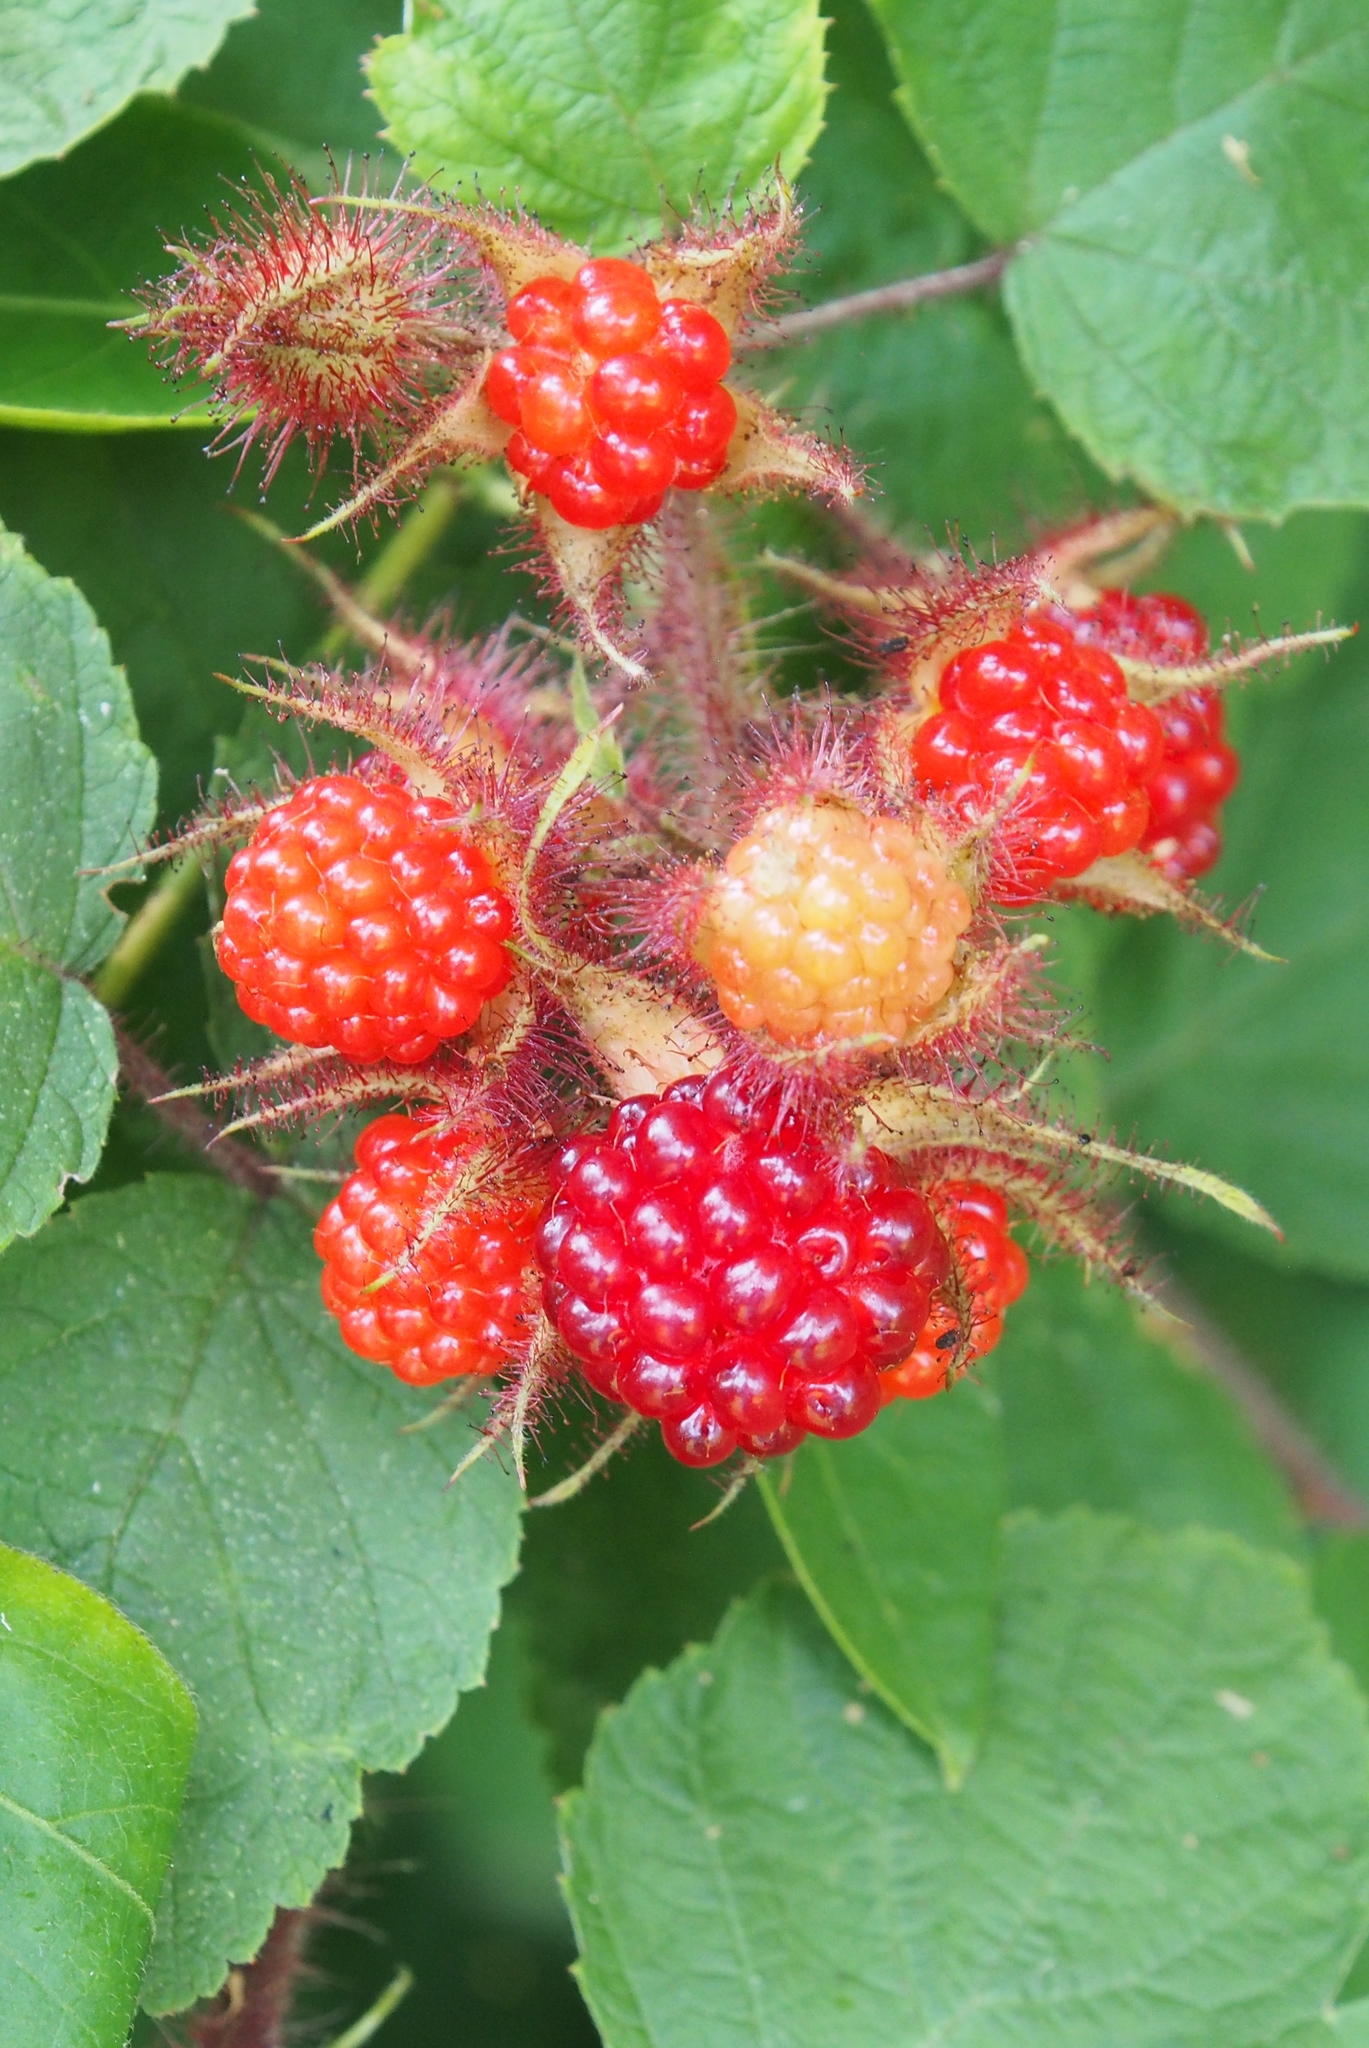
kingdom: Plantae
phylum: Tracheophyta
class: Magnoliopsida
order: Rosales
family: Rosaceae
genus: Rubus
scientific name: Rubus phoenicolasius
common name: Japanese wineberry
